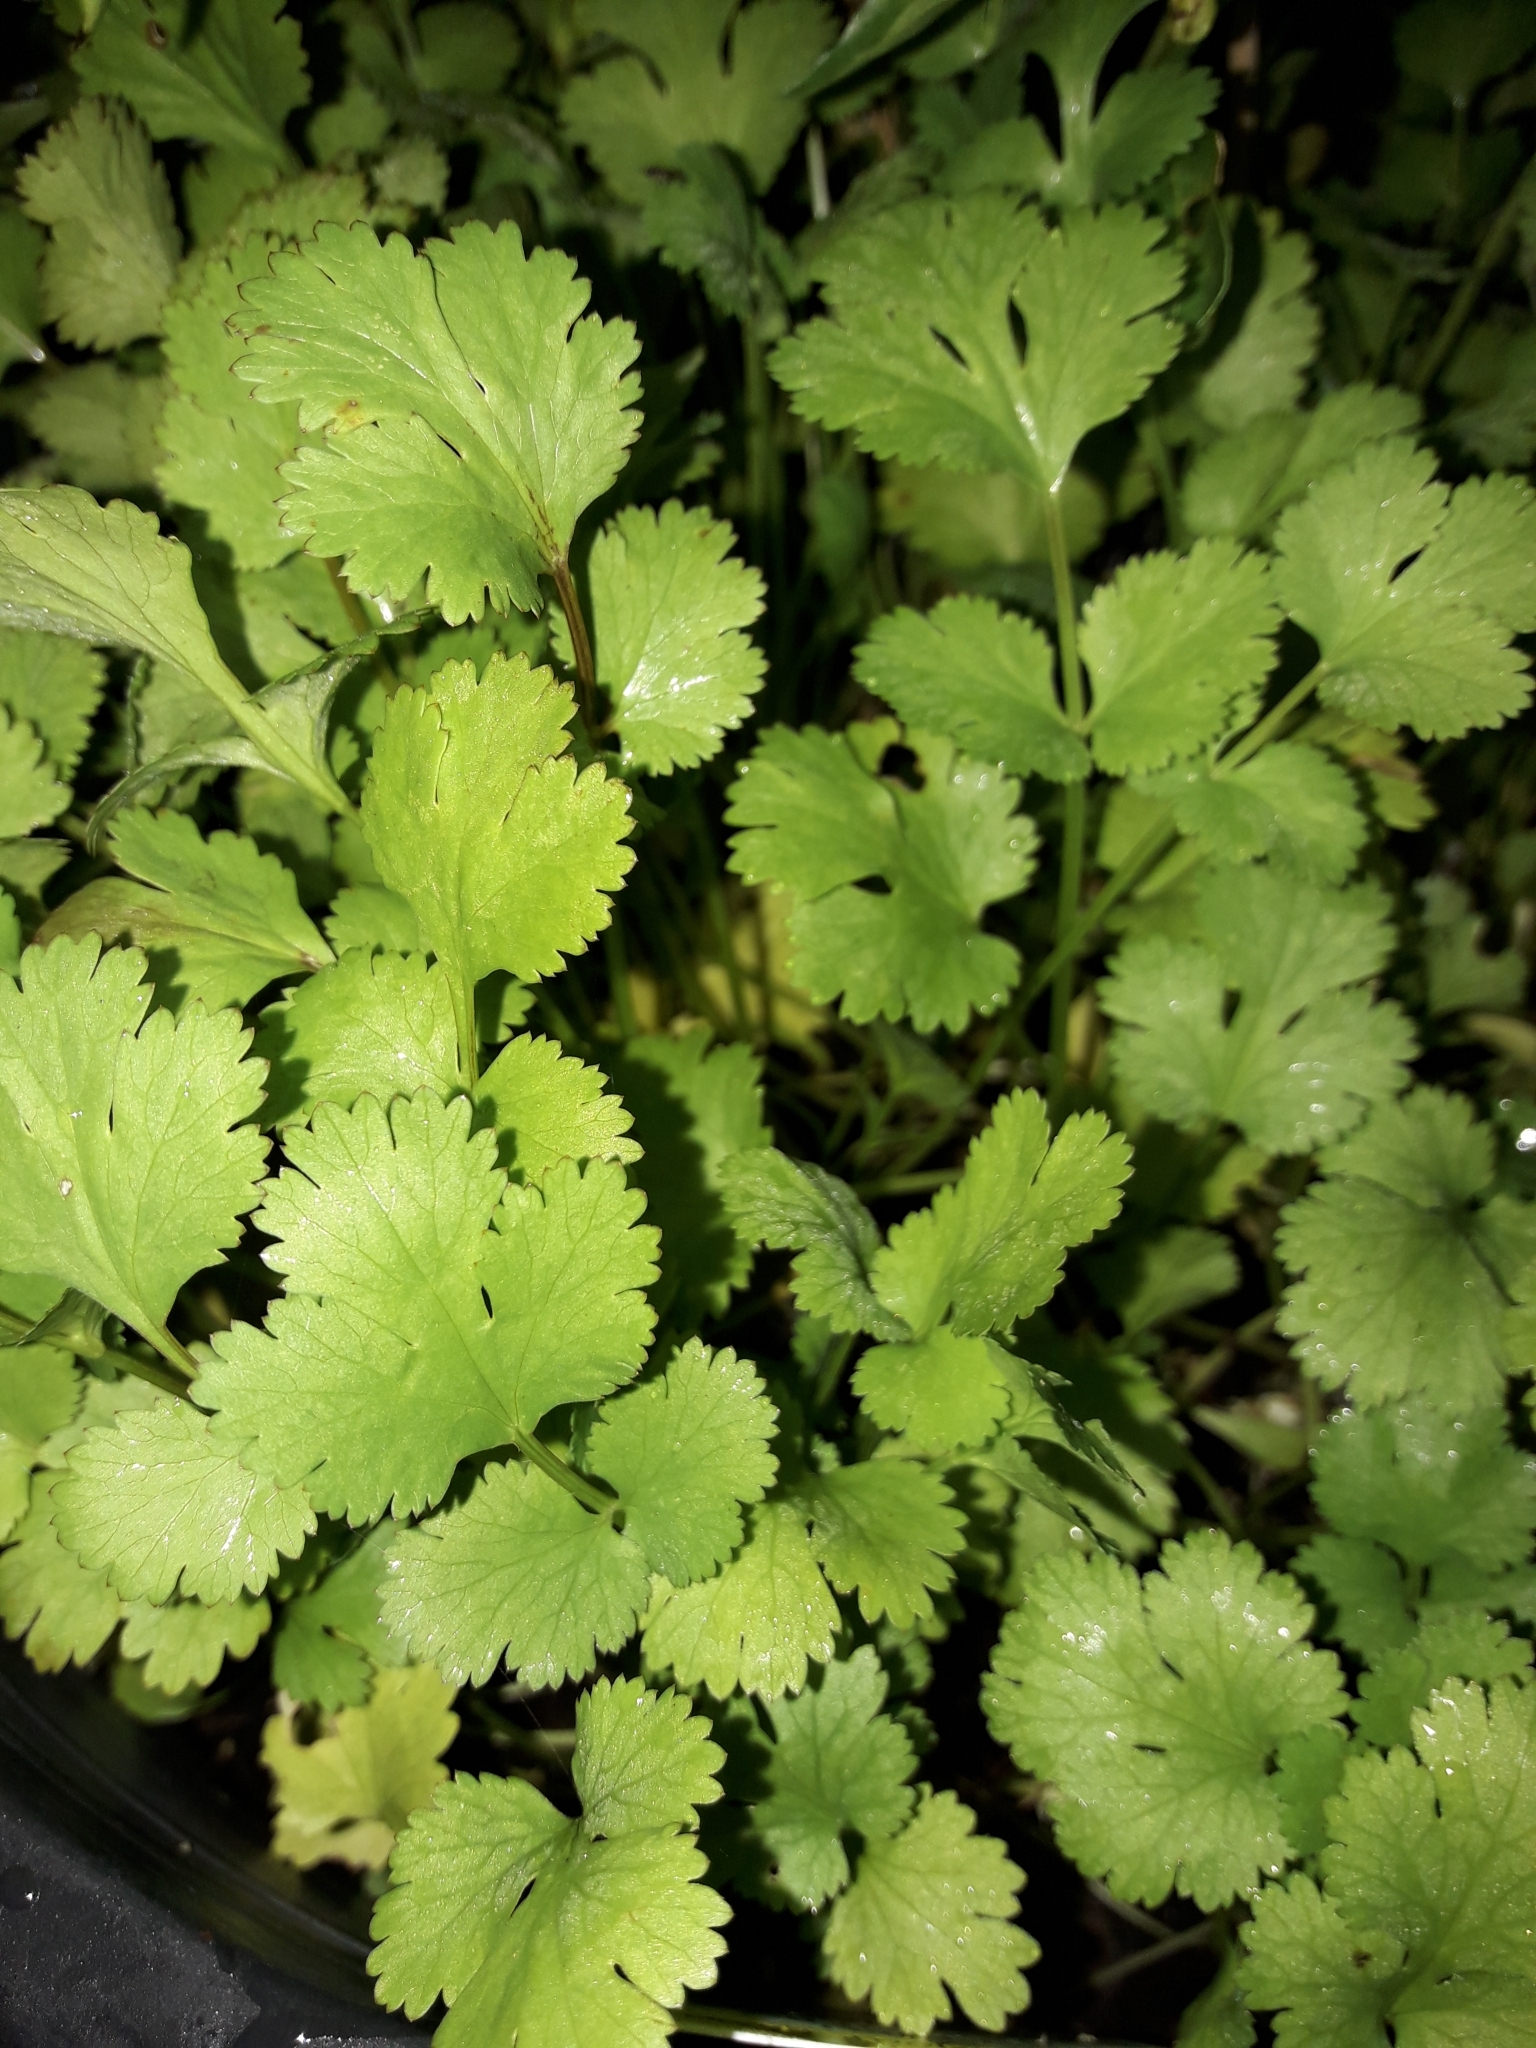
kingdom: Plantae
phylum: Tracheophyta
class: Magnoliopsida
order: Apiales
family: Apiaceae
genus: Coriandrum
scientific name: Coriandrum sativum
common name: Coriander
